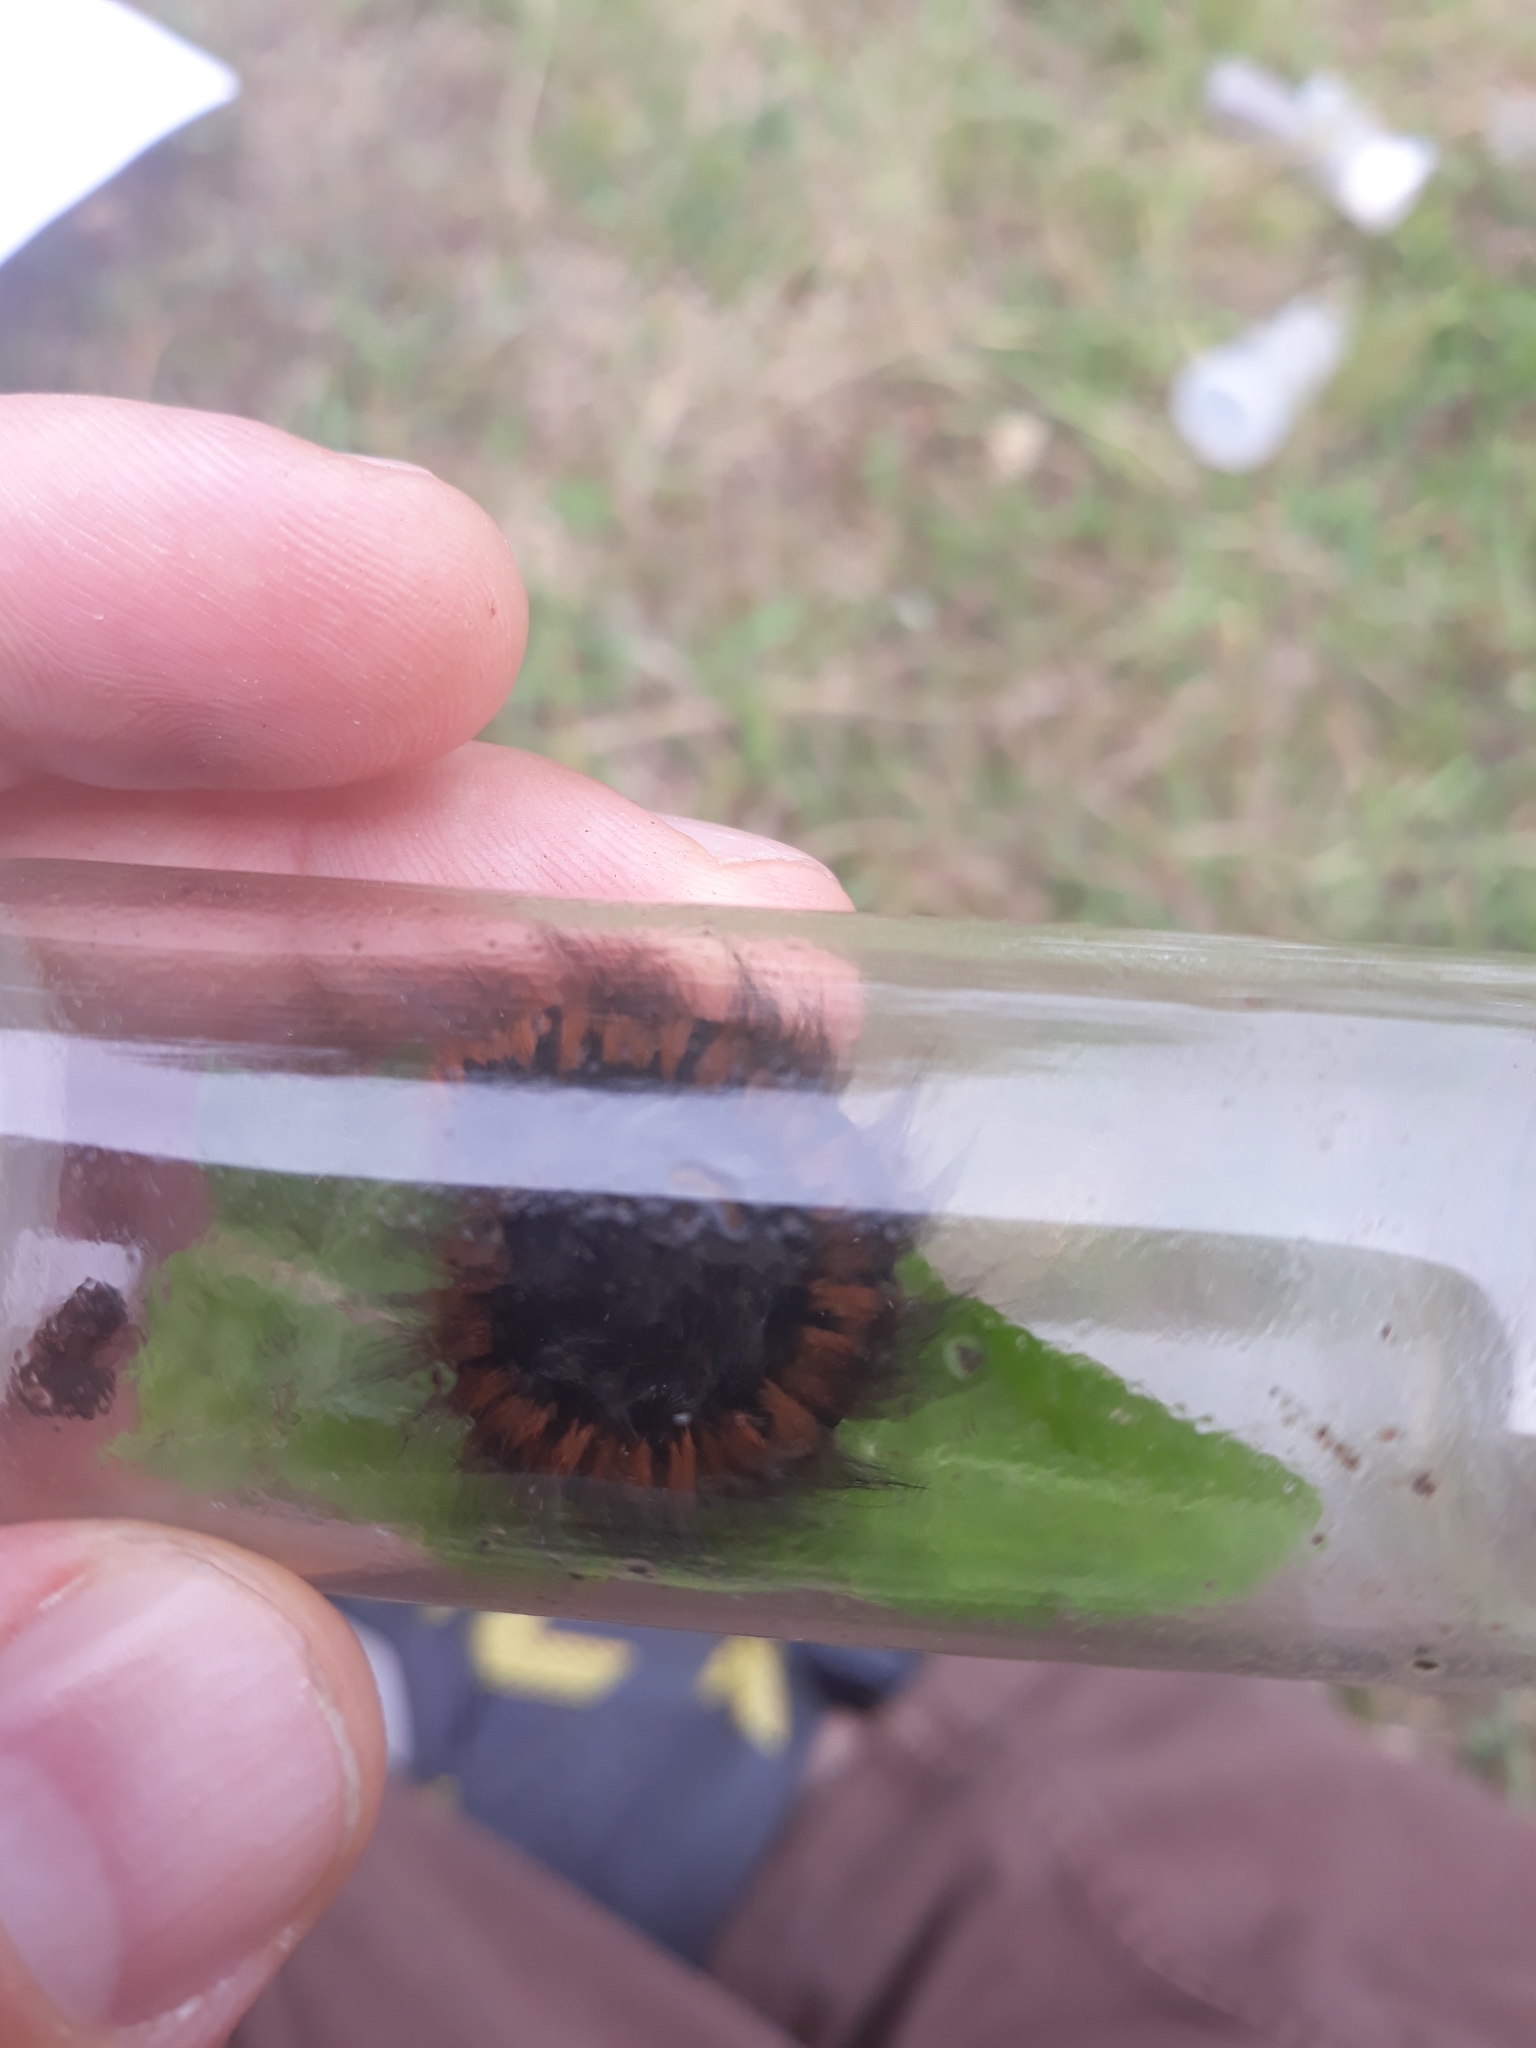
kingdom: Animalia
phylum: Arthropoda
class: Insecta
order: Lepidoptera
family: Lasiocampidae
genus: Macrothylacia
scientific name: Macrothylacia rubi
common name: Fox moth
